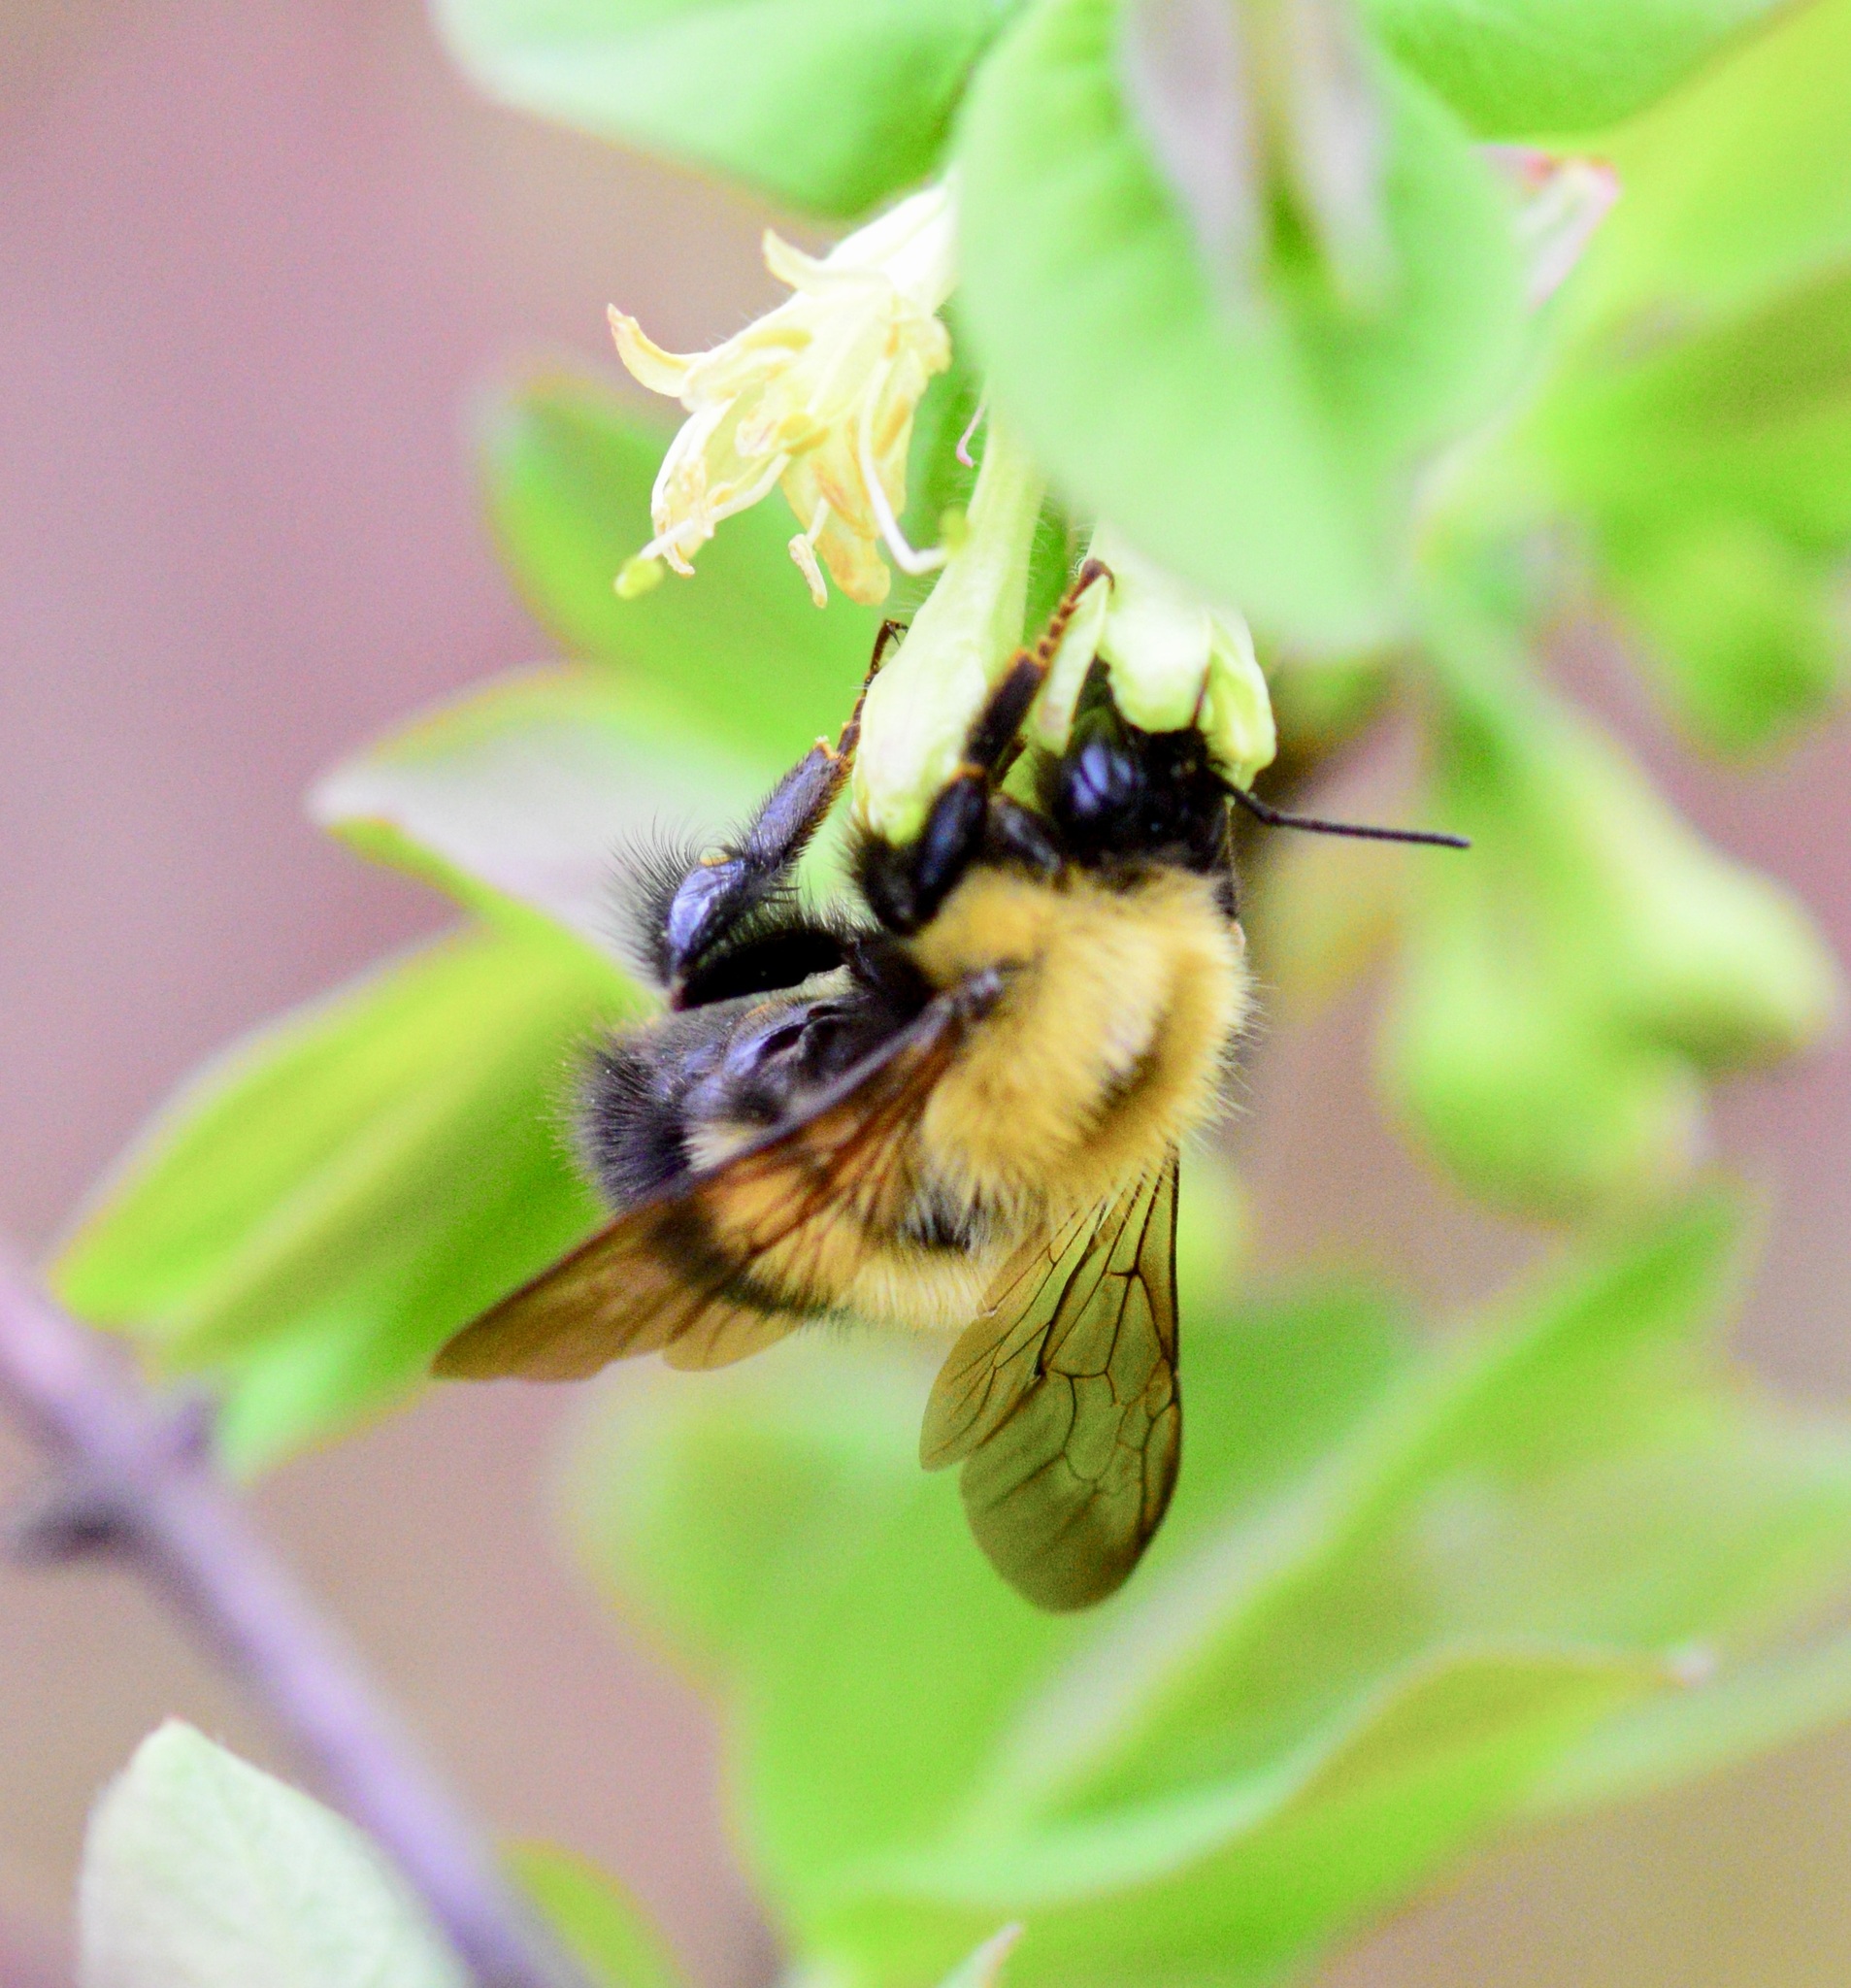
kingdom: Animalia
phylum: Arthropoda
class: Insecta
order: Hymenoptera
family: Apidae
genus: Bombus
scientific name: Bombus perplexus
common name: Confusing bumble bee
